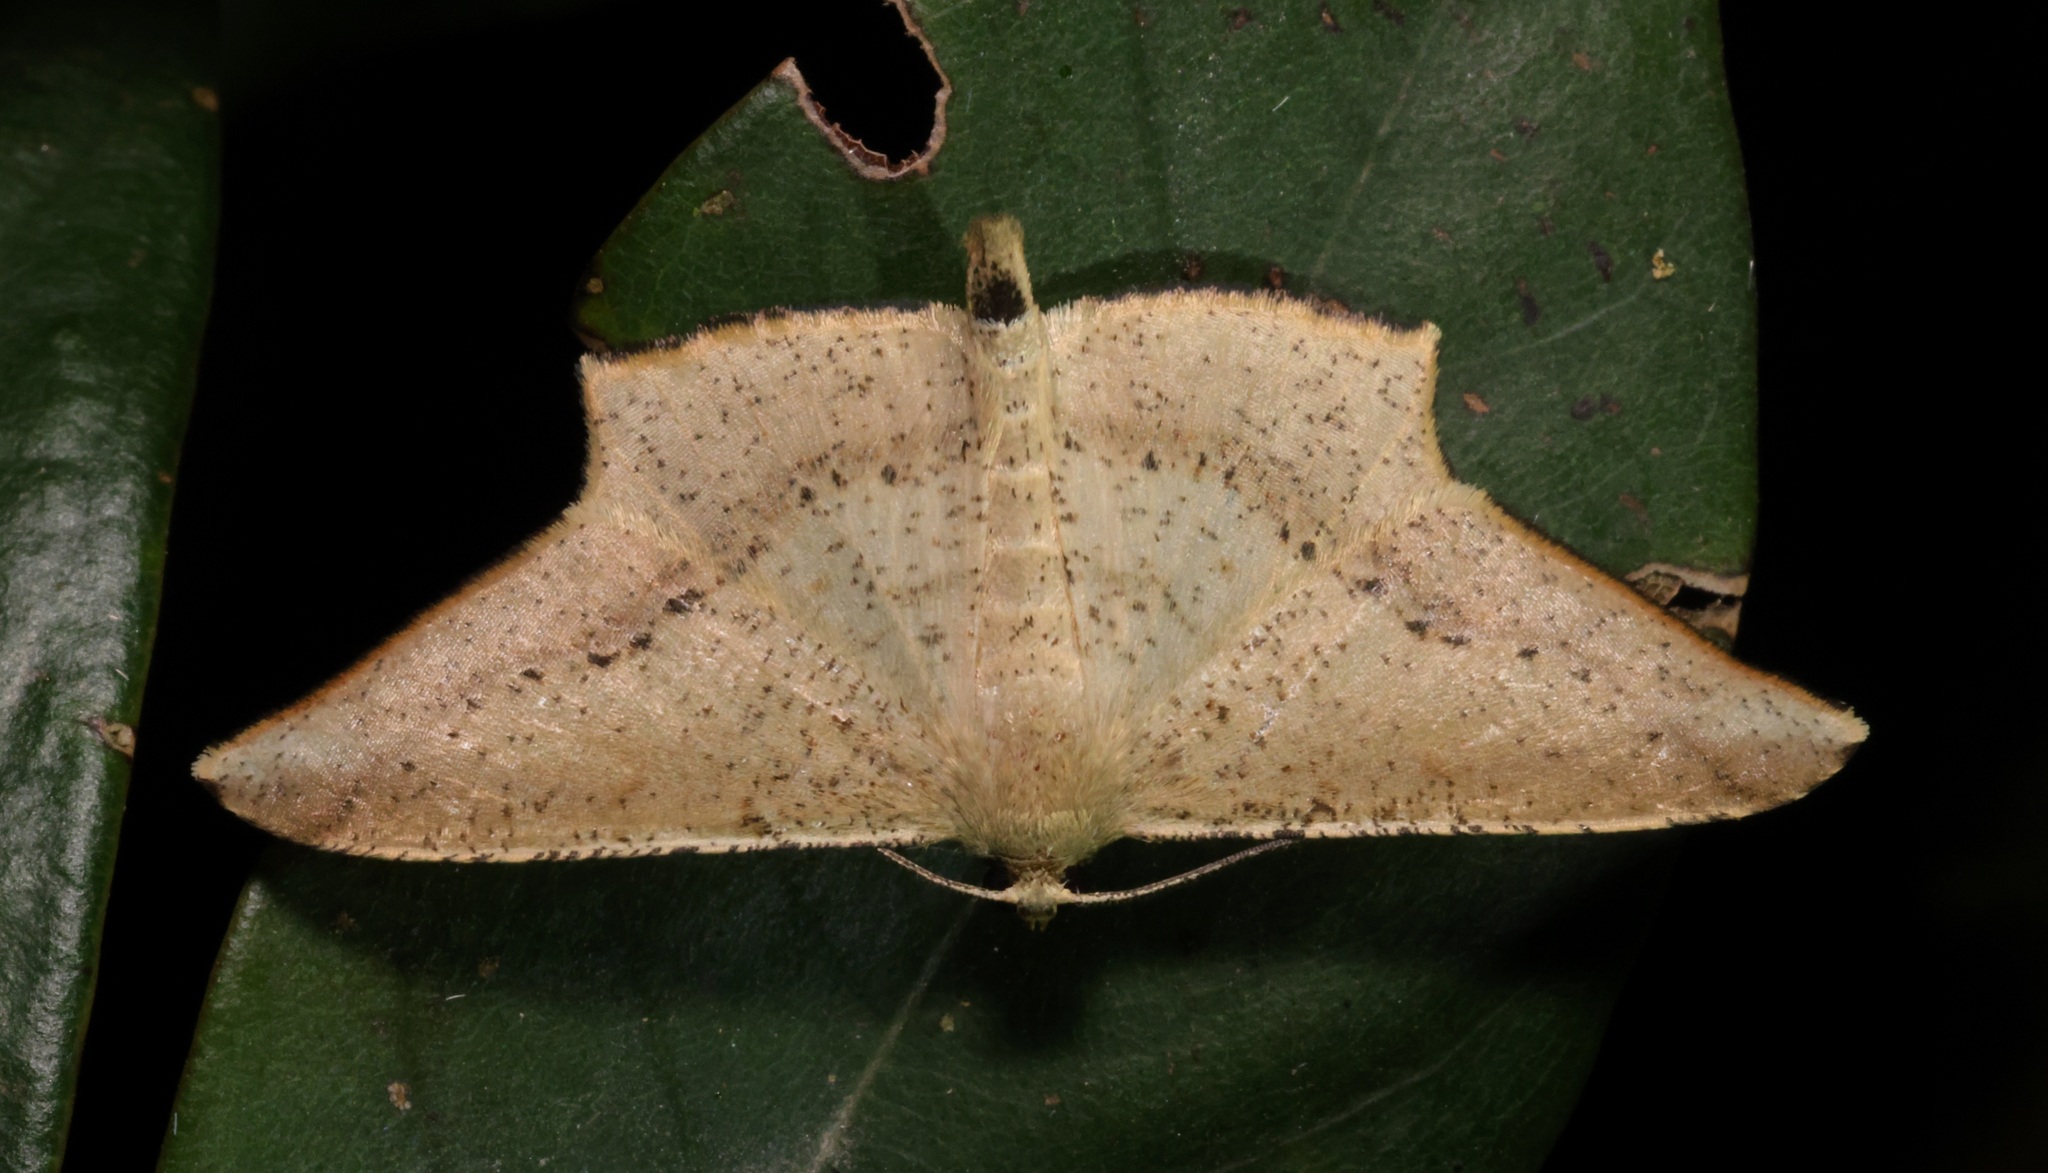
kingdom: Animalia
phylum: Arthropoda
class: Insecta
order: Lepidoptera
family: Geometridae
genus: Krananda
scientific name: Krananda falcata
